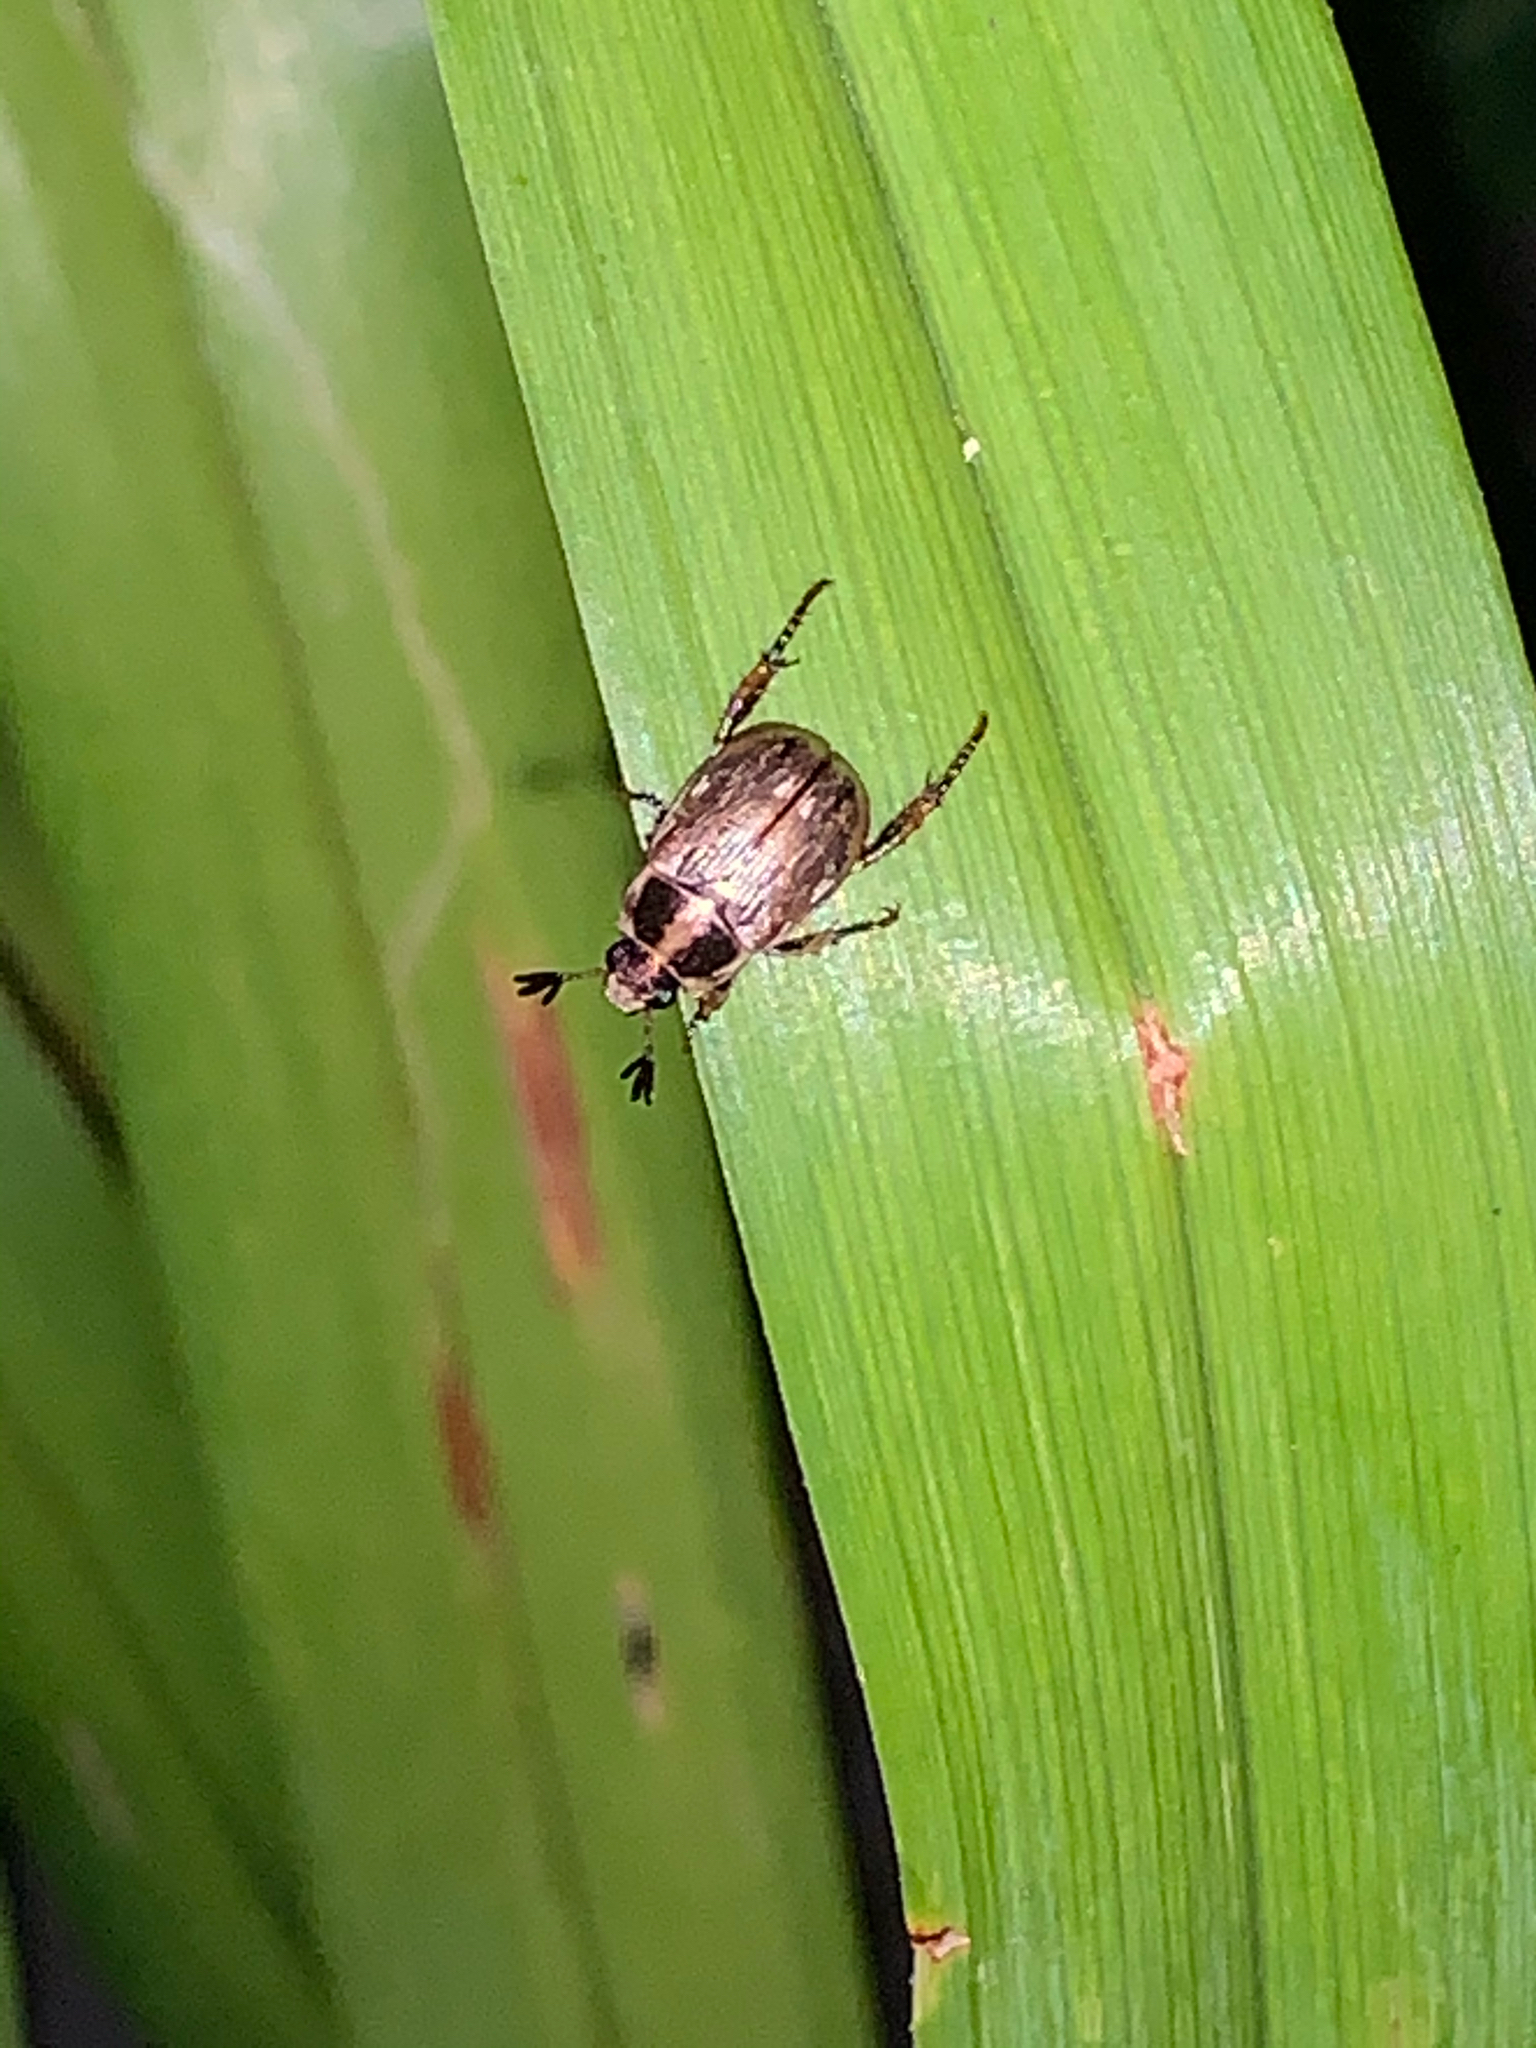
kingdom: Animalia
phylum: Arthropoda
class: Insecta
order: Coleoptera
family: Scarabaeidae
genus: Exomala
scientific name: Exomala orientalis
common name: Oriental beetle
